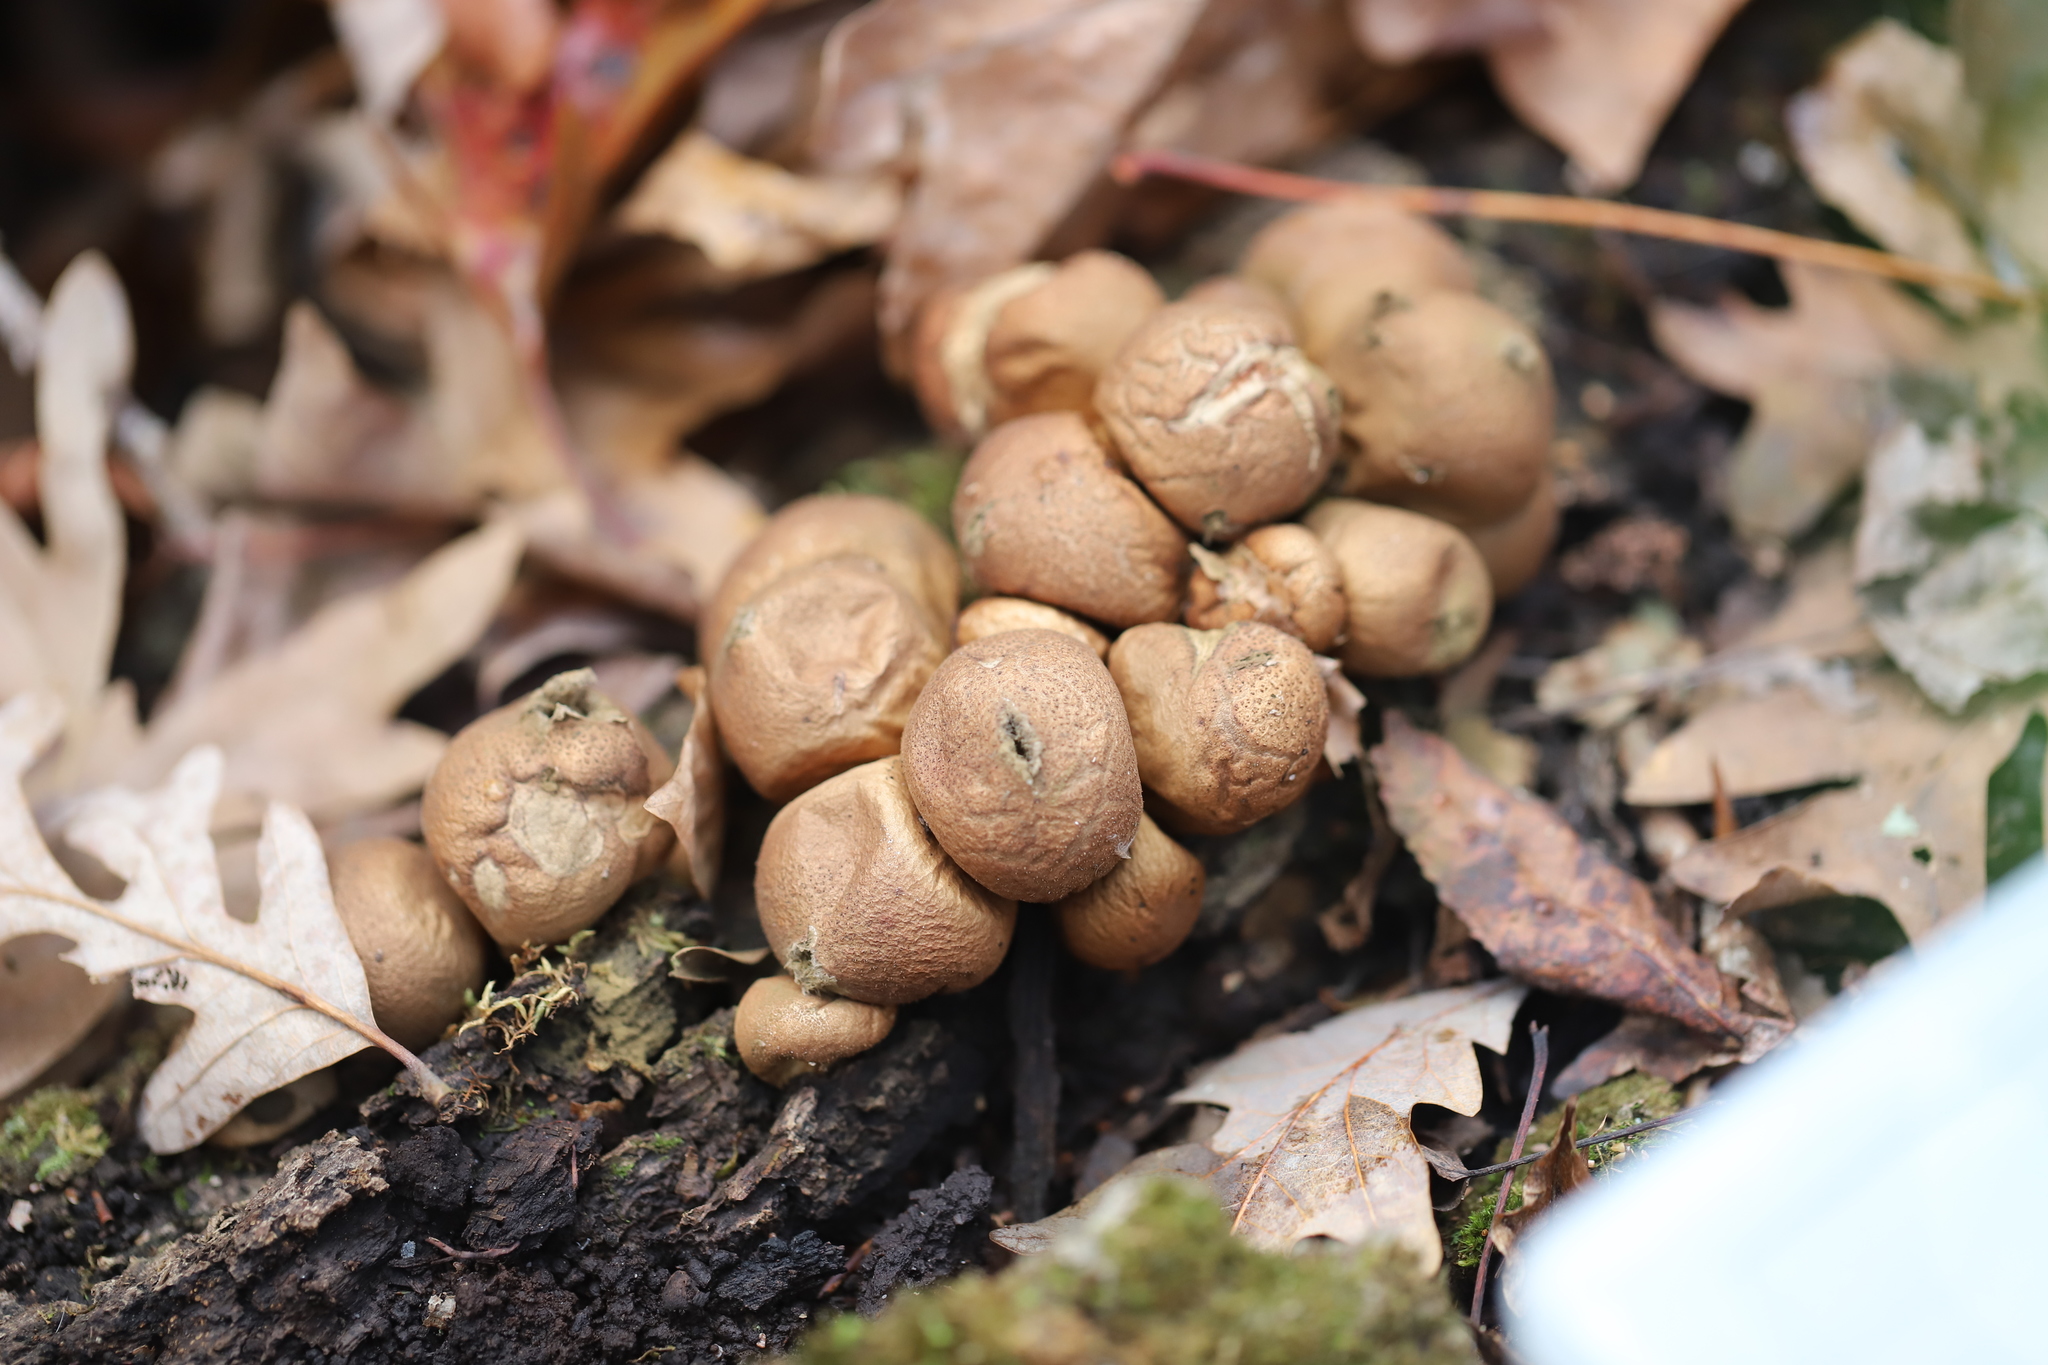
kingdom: Fungi
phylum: Basidiomycota
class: Agaricomycetes
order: Agaricales
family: Lycoperdaceae
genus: Apioperdon
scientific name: Apioperdon pyriforme
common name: Pear-shaped puffball
